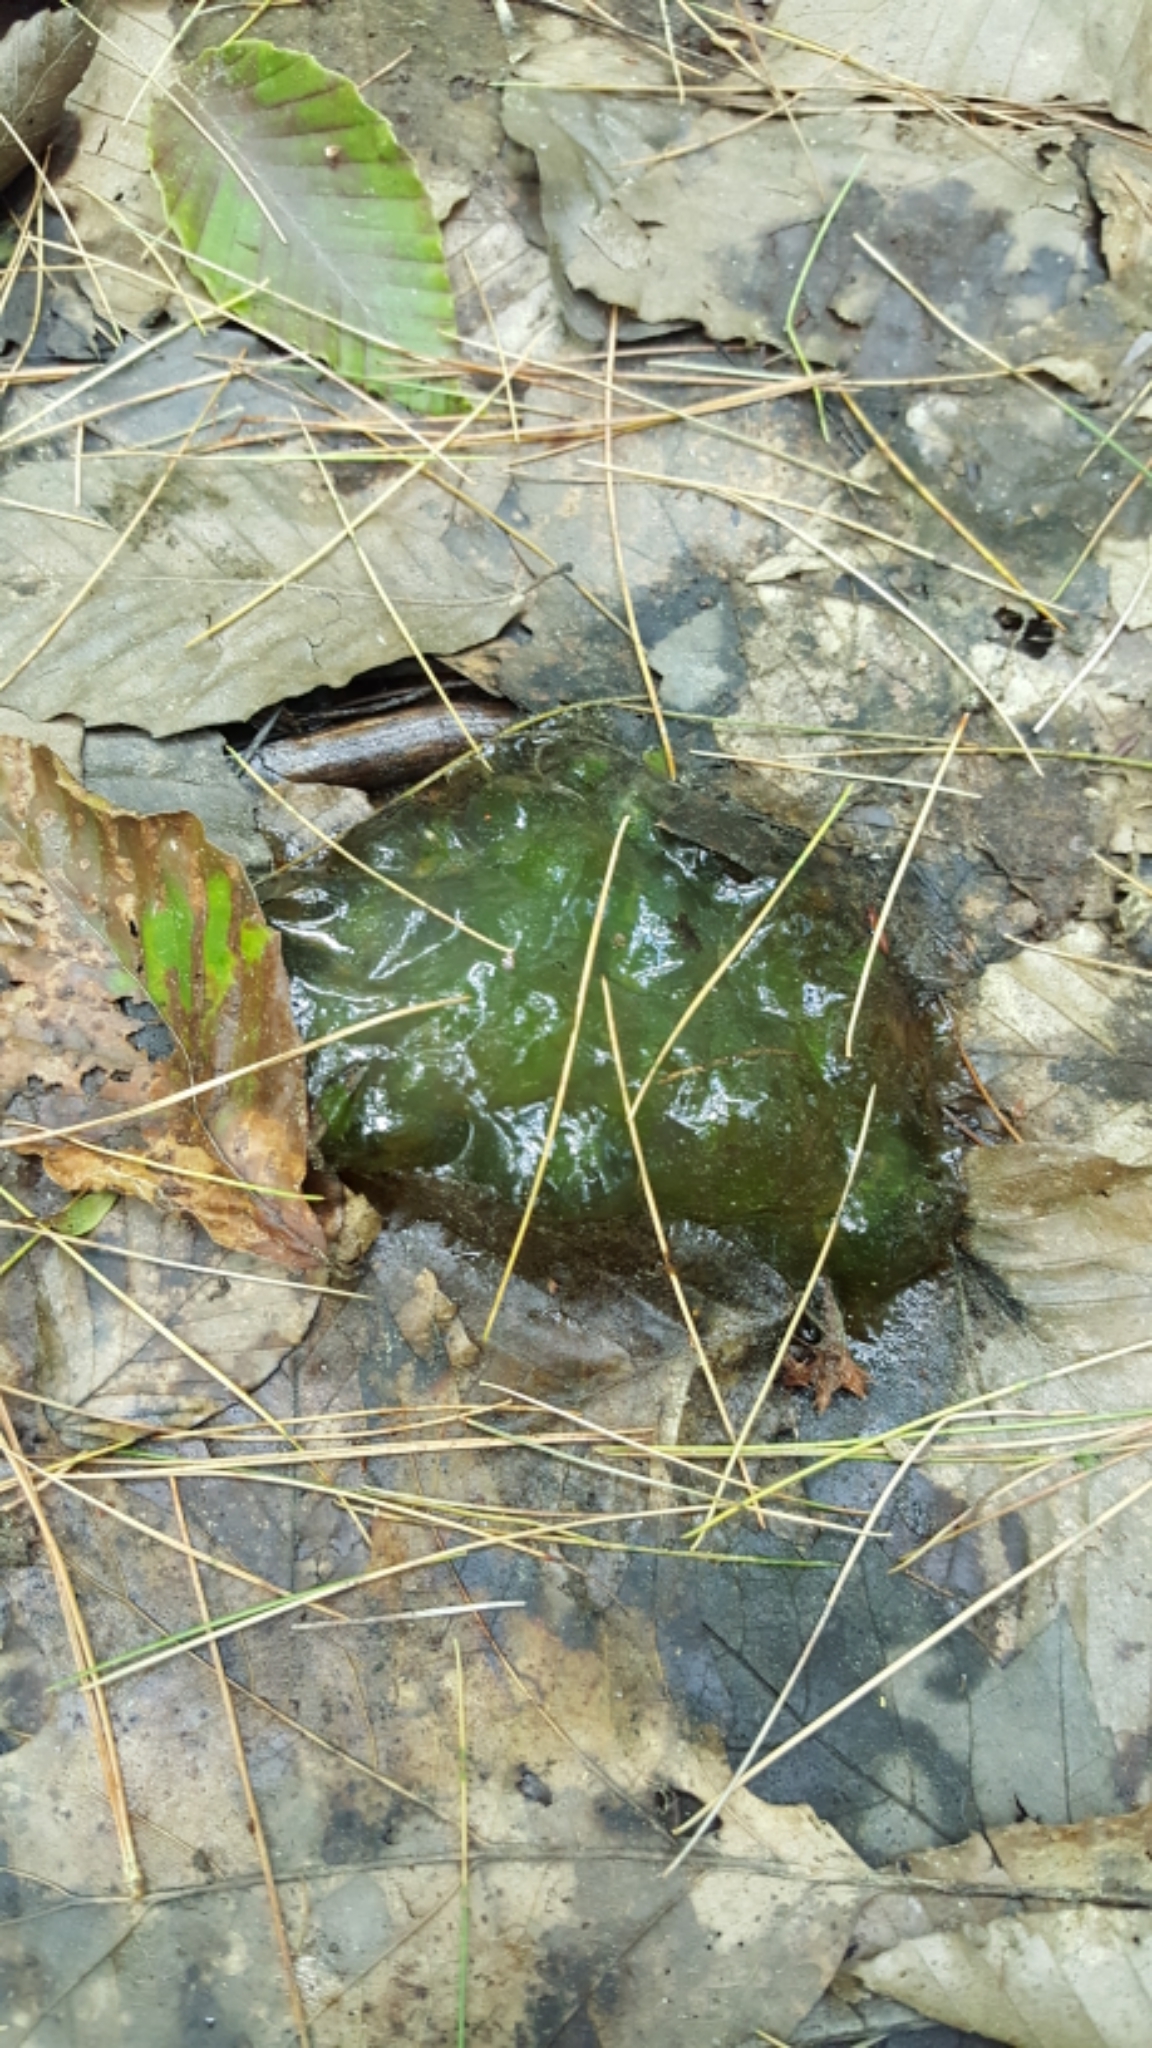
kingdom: Animalia
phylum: Chordata
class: Amphibia
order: Caudata
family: Ambystomatidae
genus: Ambystoma
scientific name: Ambystoma maculatum
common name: Spotted salamander
